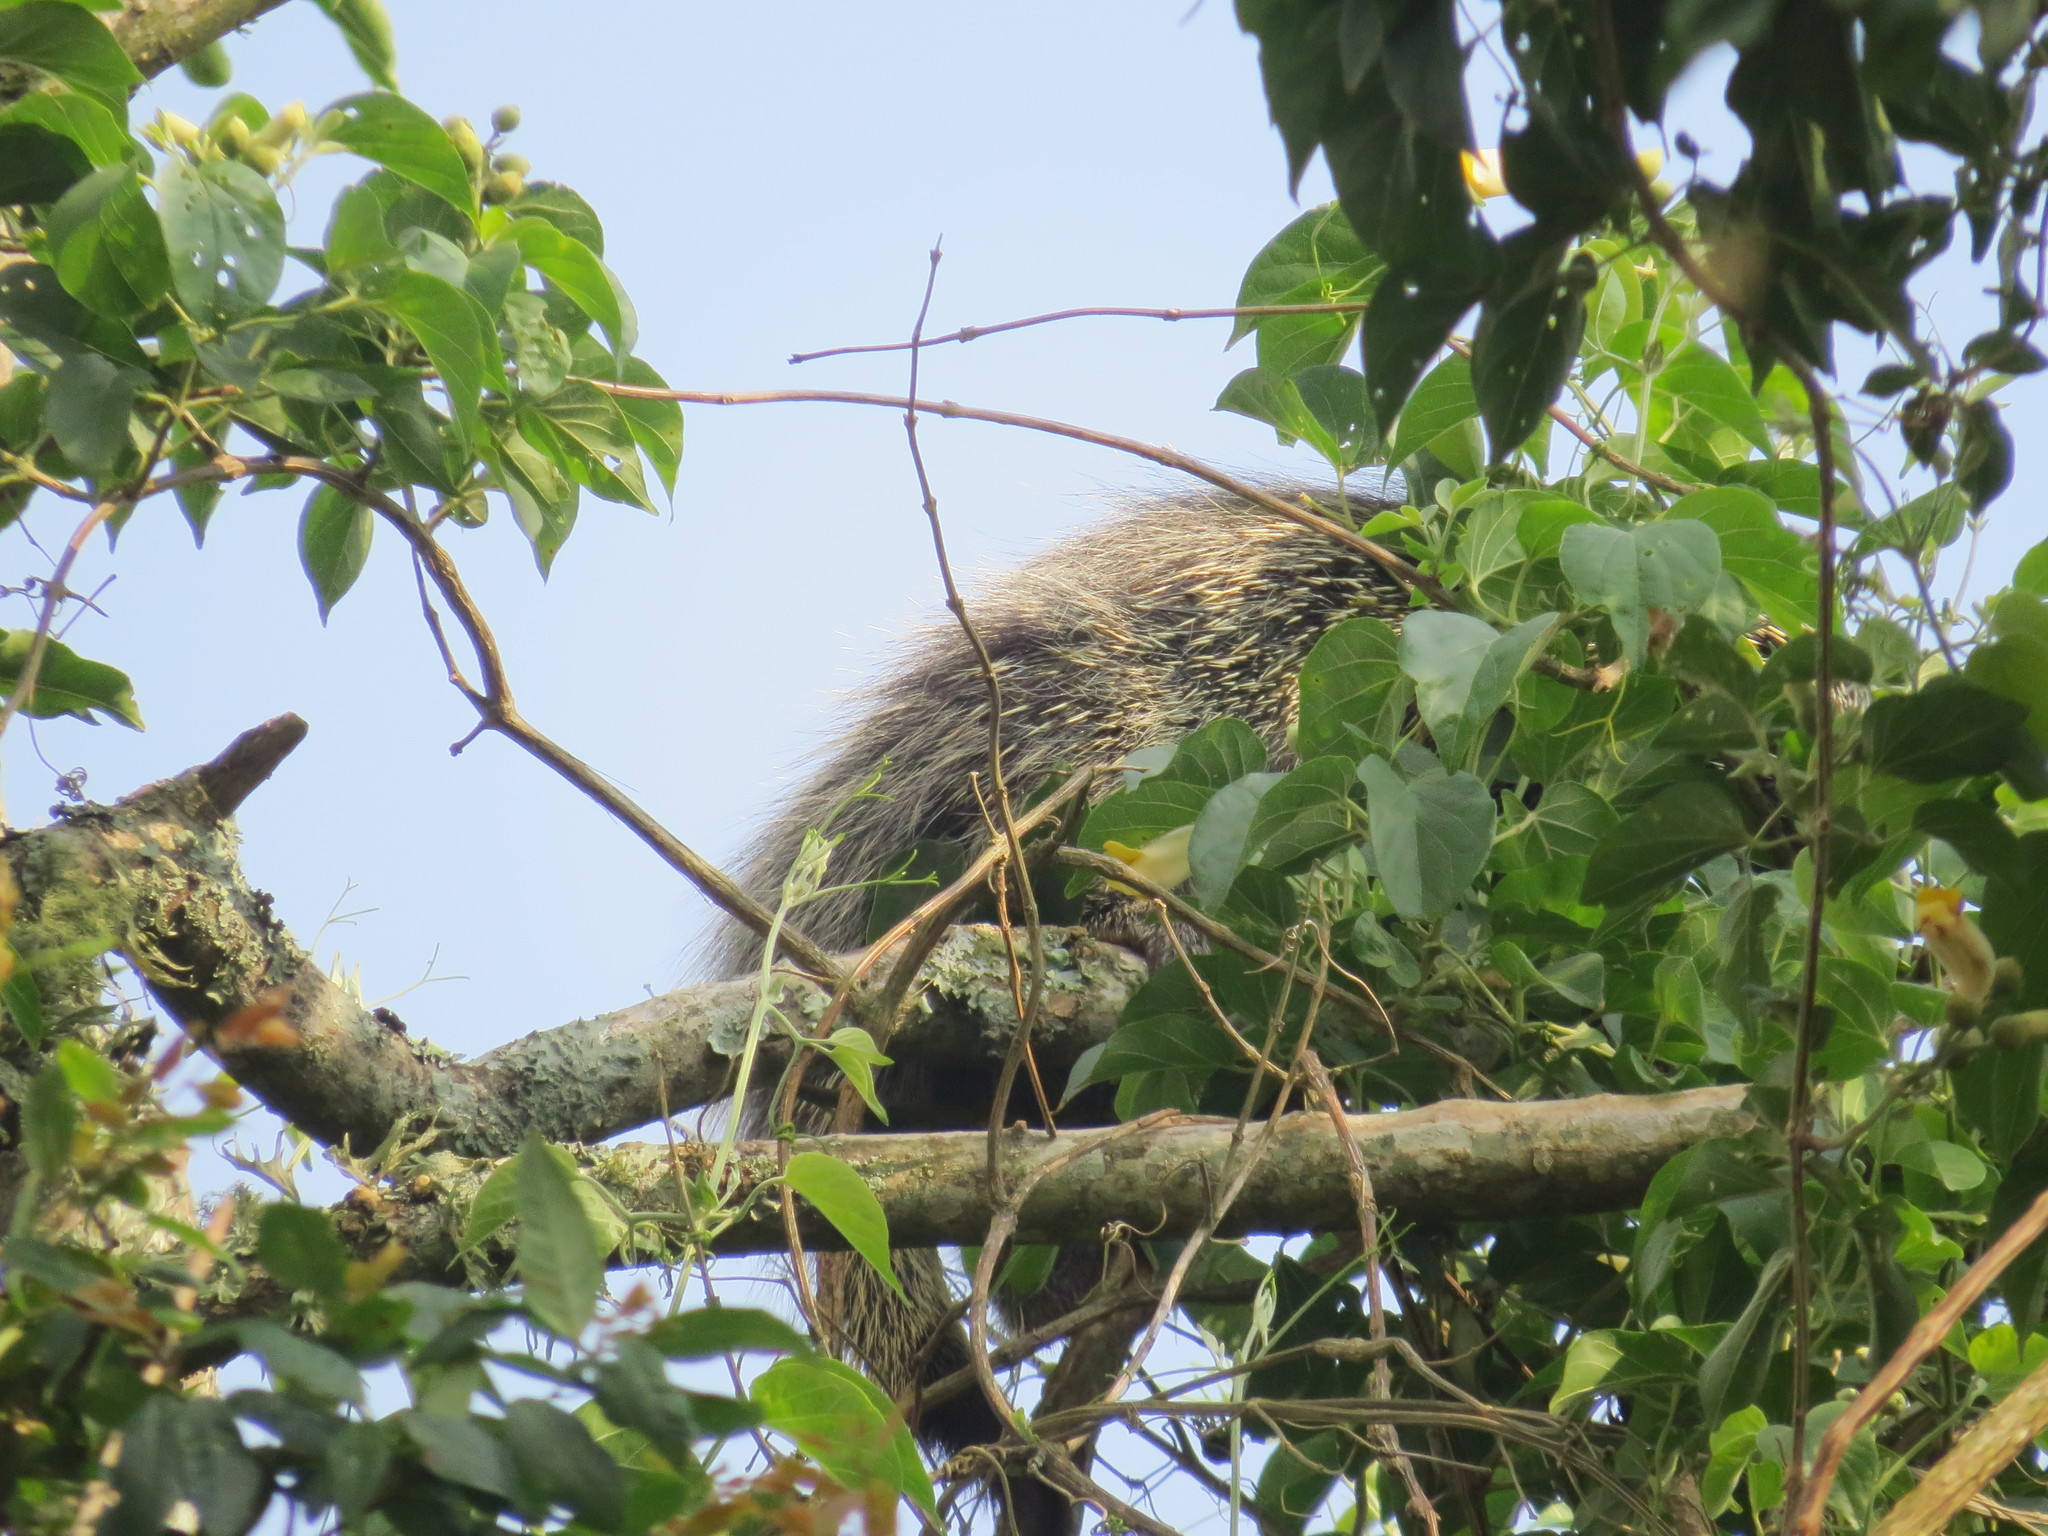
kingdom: Animalia
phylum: Chordata
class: Mammalia
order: Rodentia
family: Erethizontidae
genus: Sphiggurus
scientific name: Sphiggurus spinosus
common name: Paraguaian hairy dwarf porcupine
